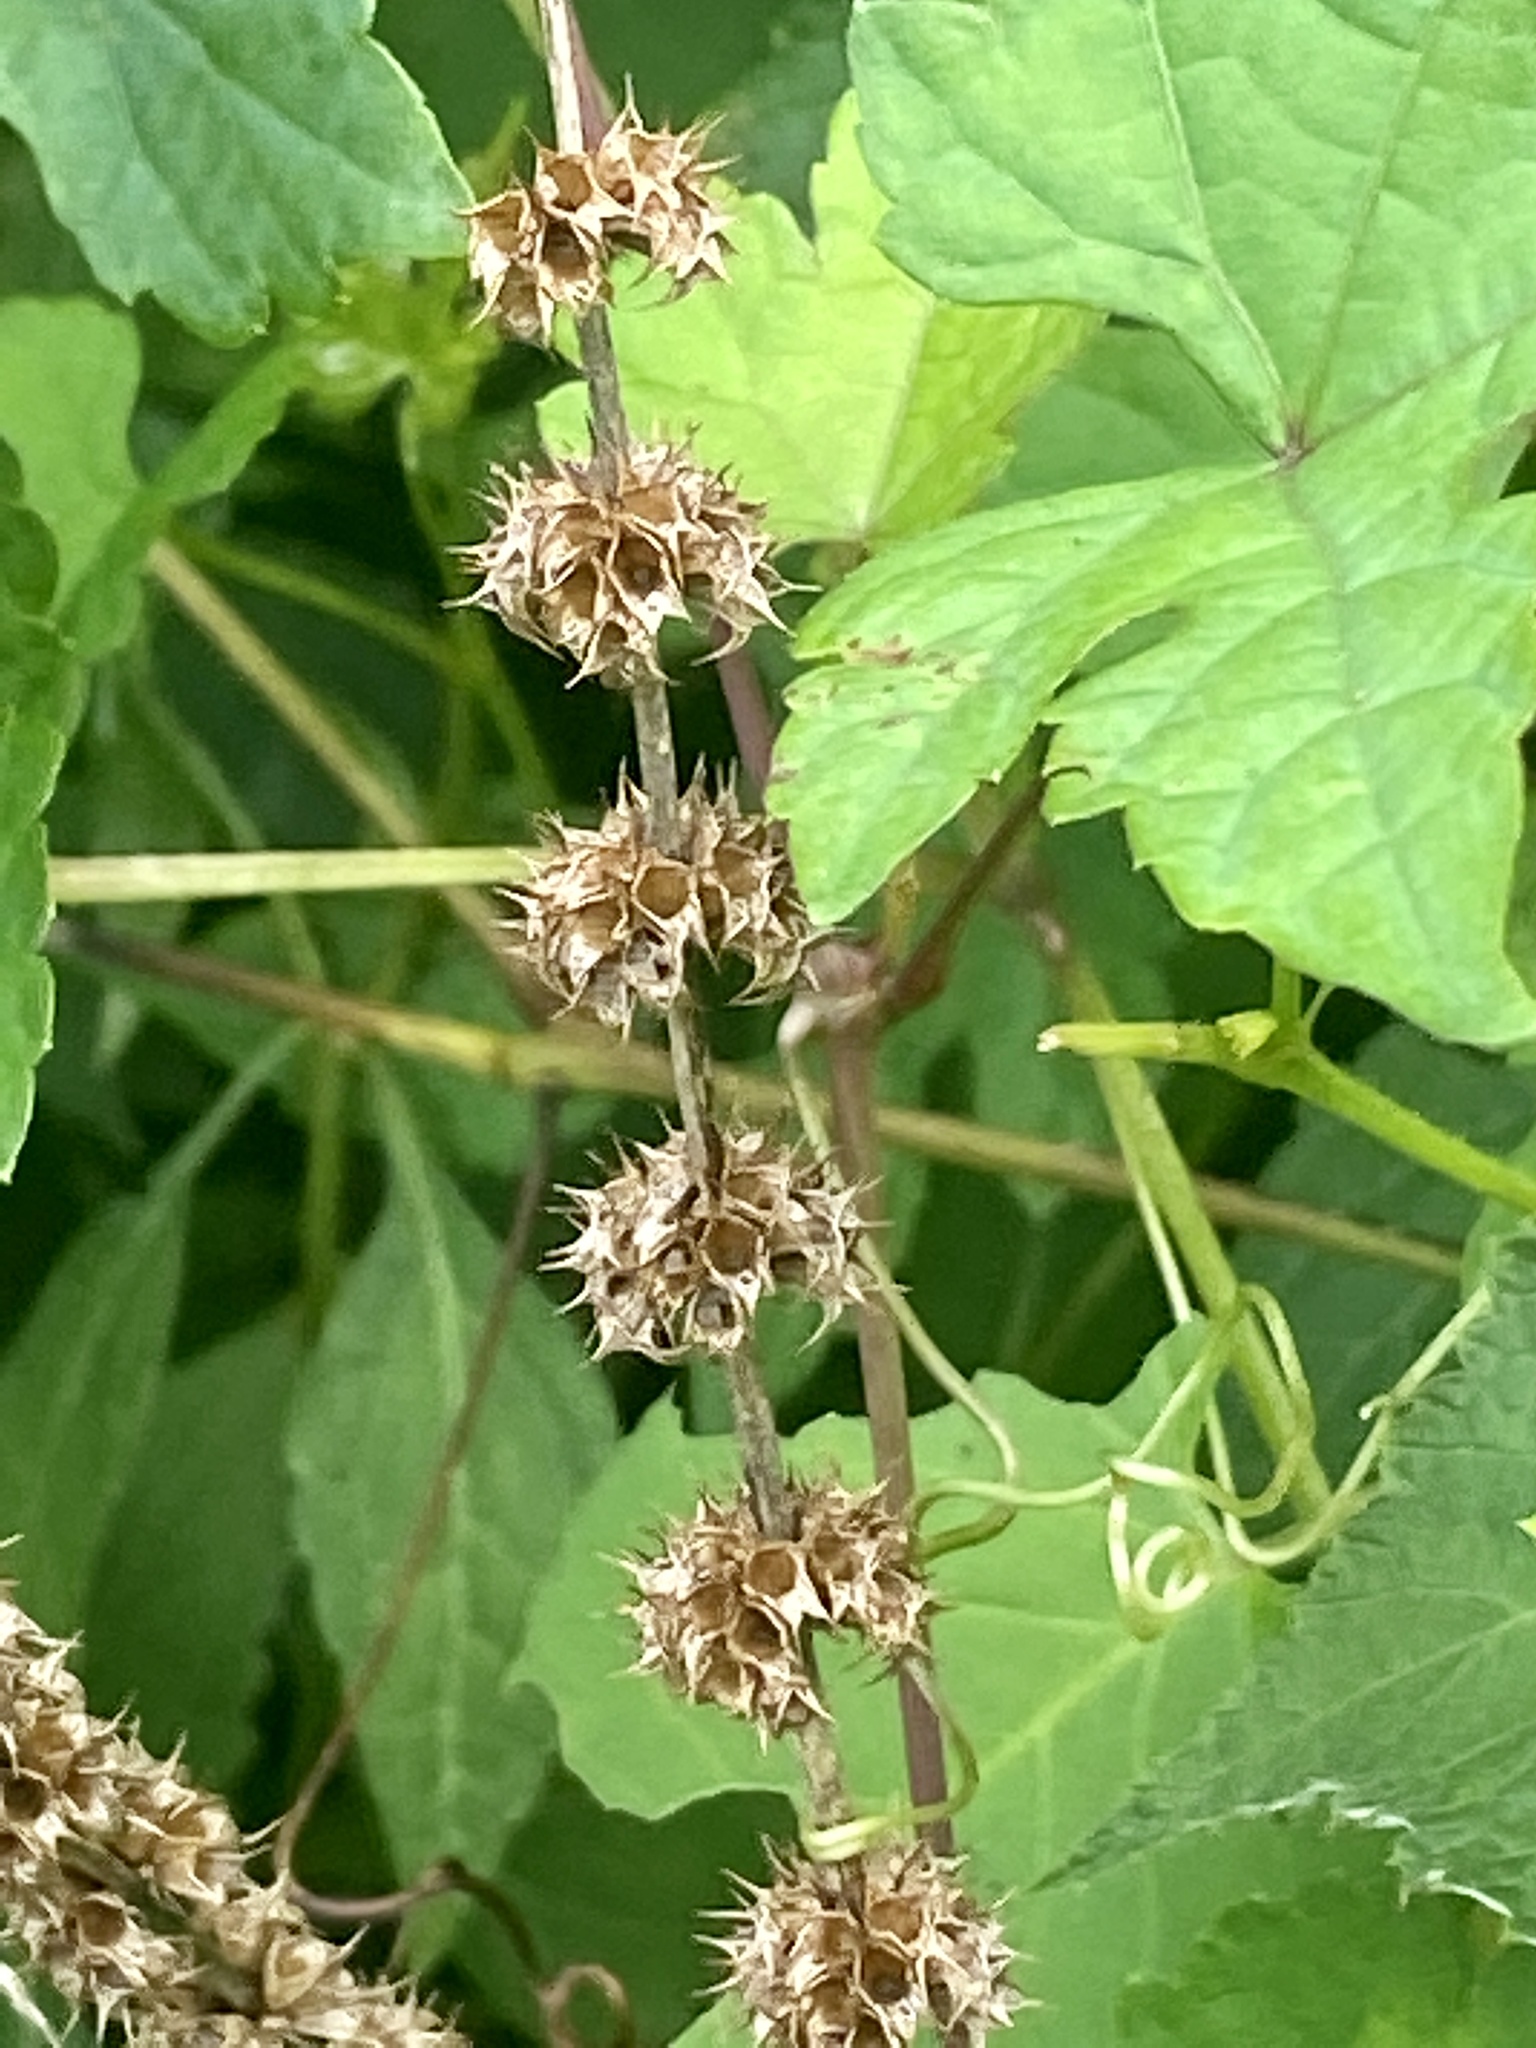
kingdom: Plantae
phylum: Tracheophyta
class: Magnoliopsida
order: Lamiales
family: Lamiaceae
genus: Leonurus
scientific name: Leonurus cardiaca
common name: Motherwort
